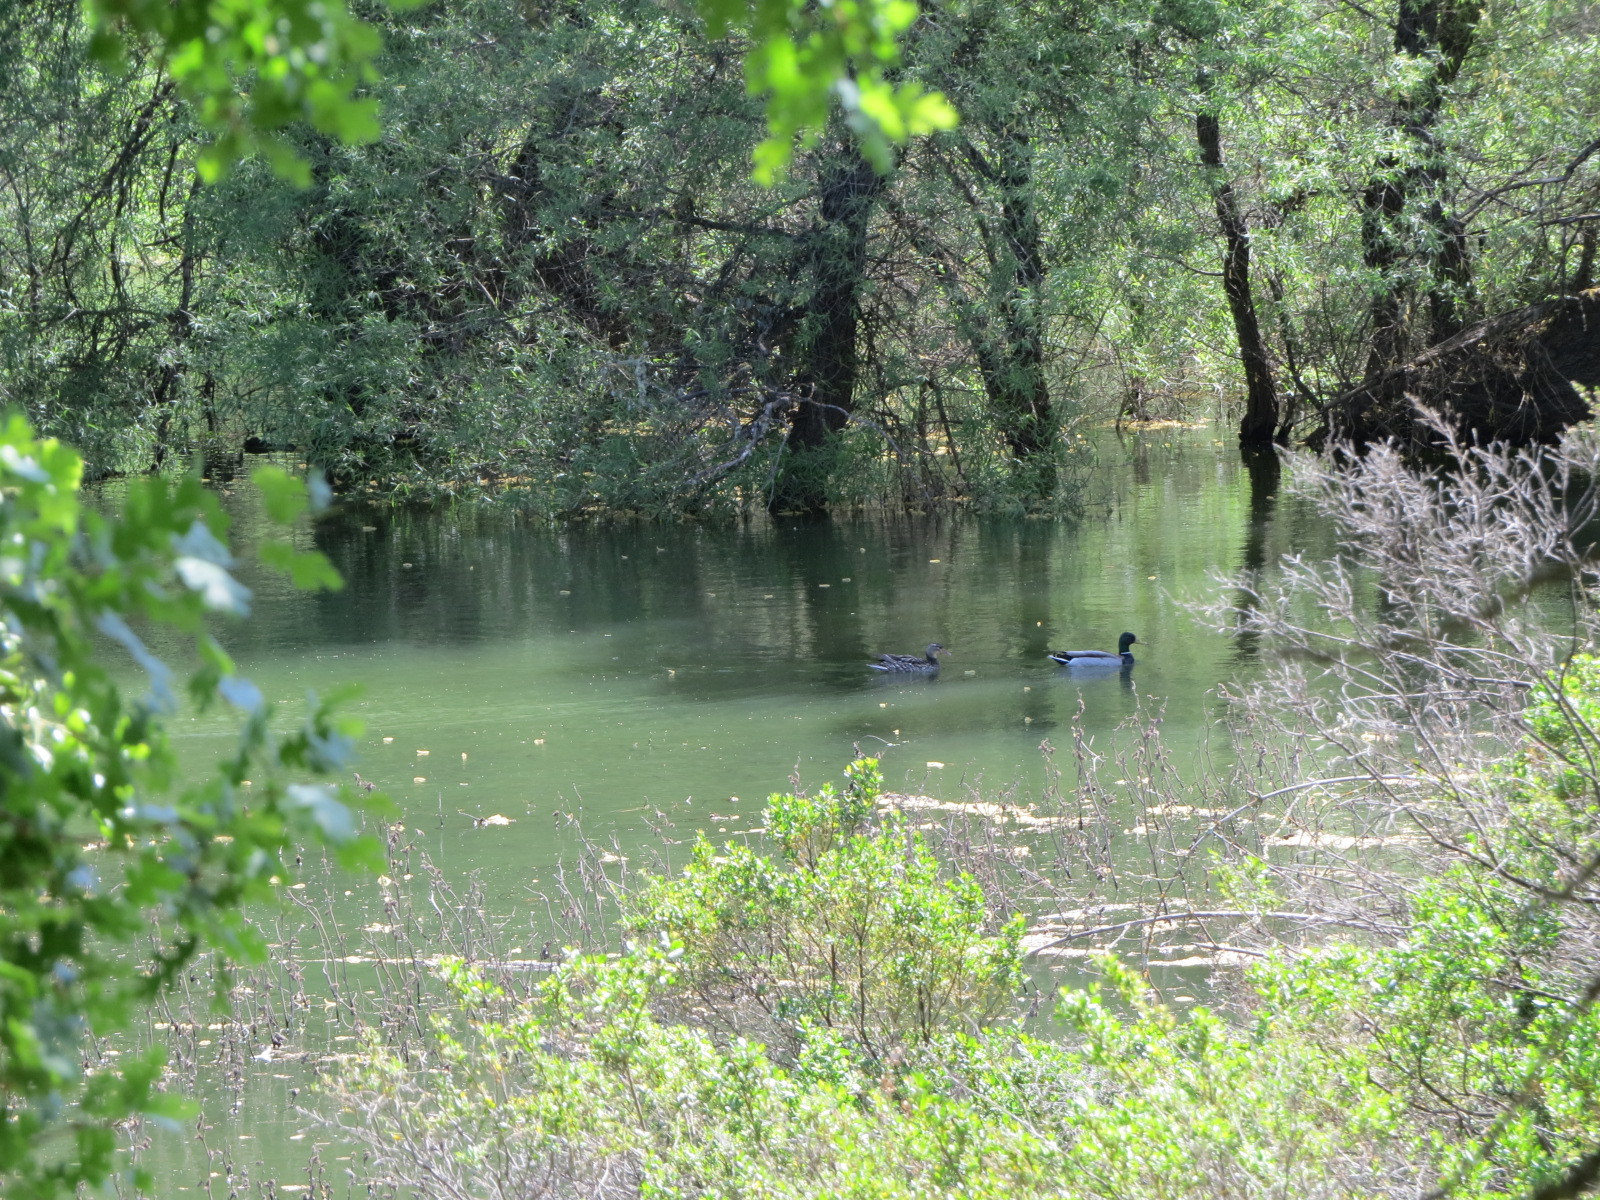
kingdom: Animalia
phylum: Chordata
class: Aves
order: Anseriformes
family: Anatidae
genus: Anas
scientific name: Anas platyrhynchos
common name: Mallard
